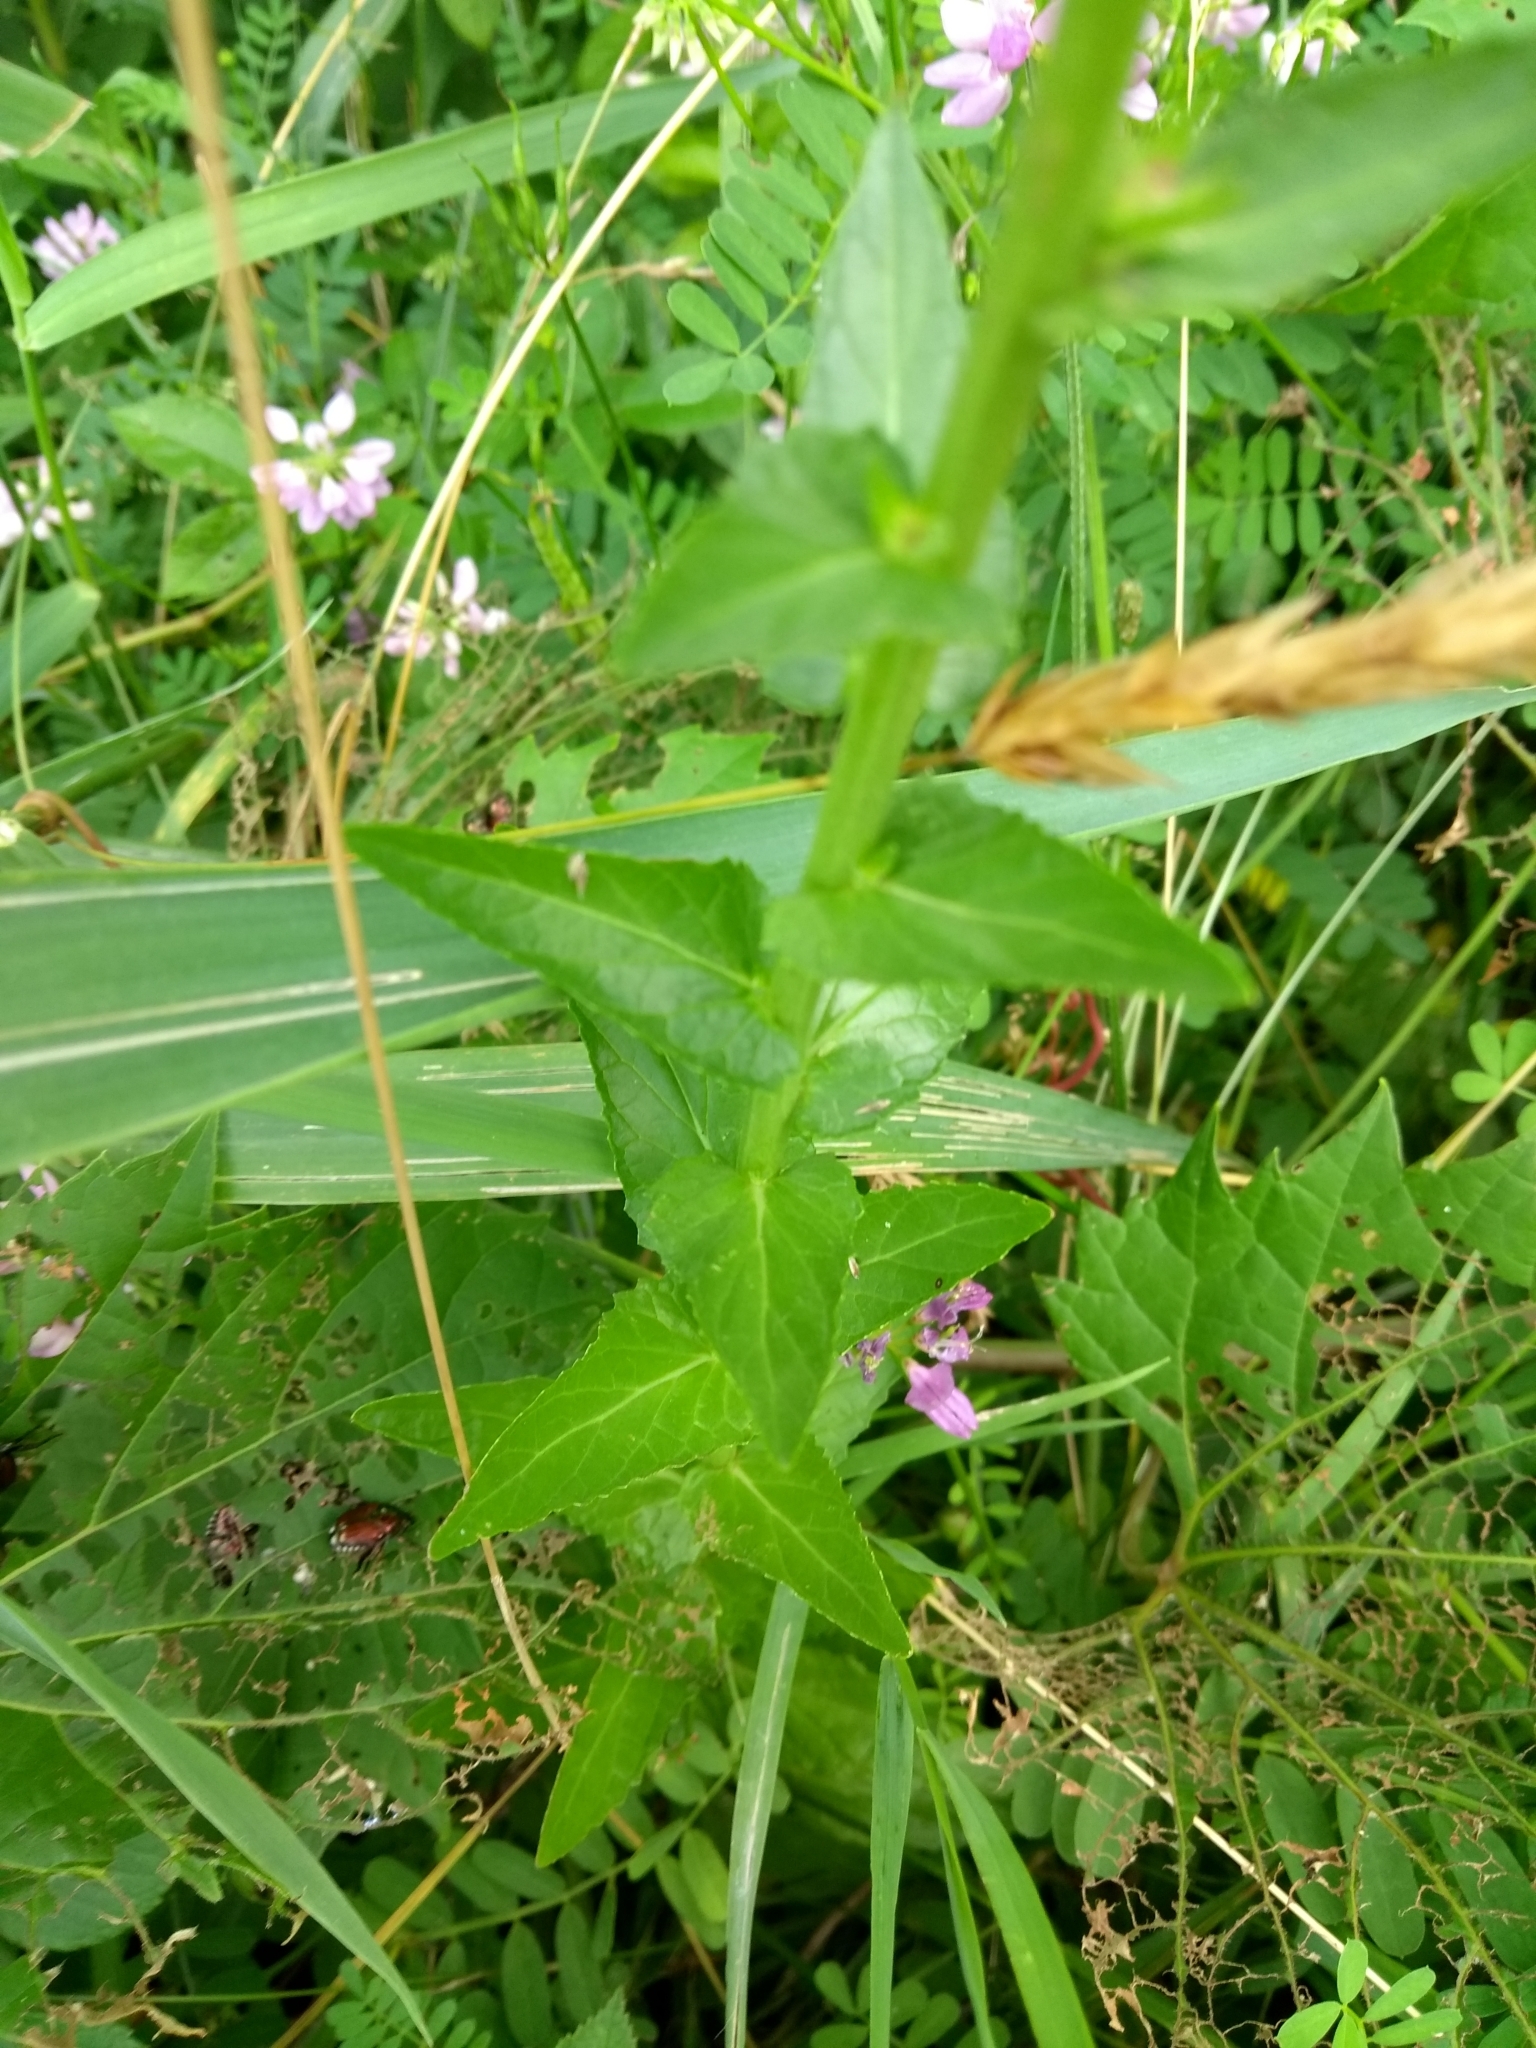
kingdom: Plantae
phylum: Tracheophyta
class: Magnoliopsida
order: Lamiales
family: Scrophulariaceae
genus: Verbascum
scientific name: Verbascum blattaria
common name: Moth mullein
